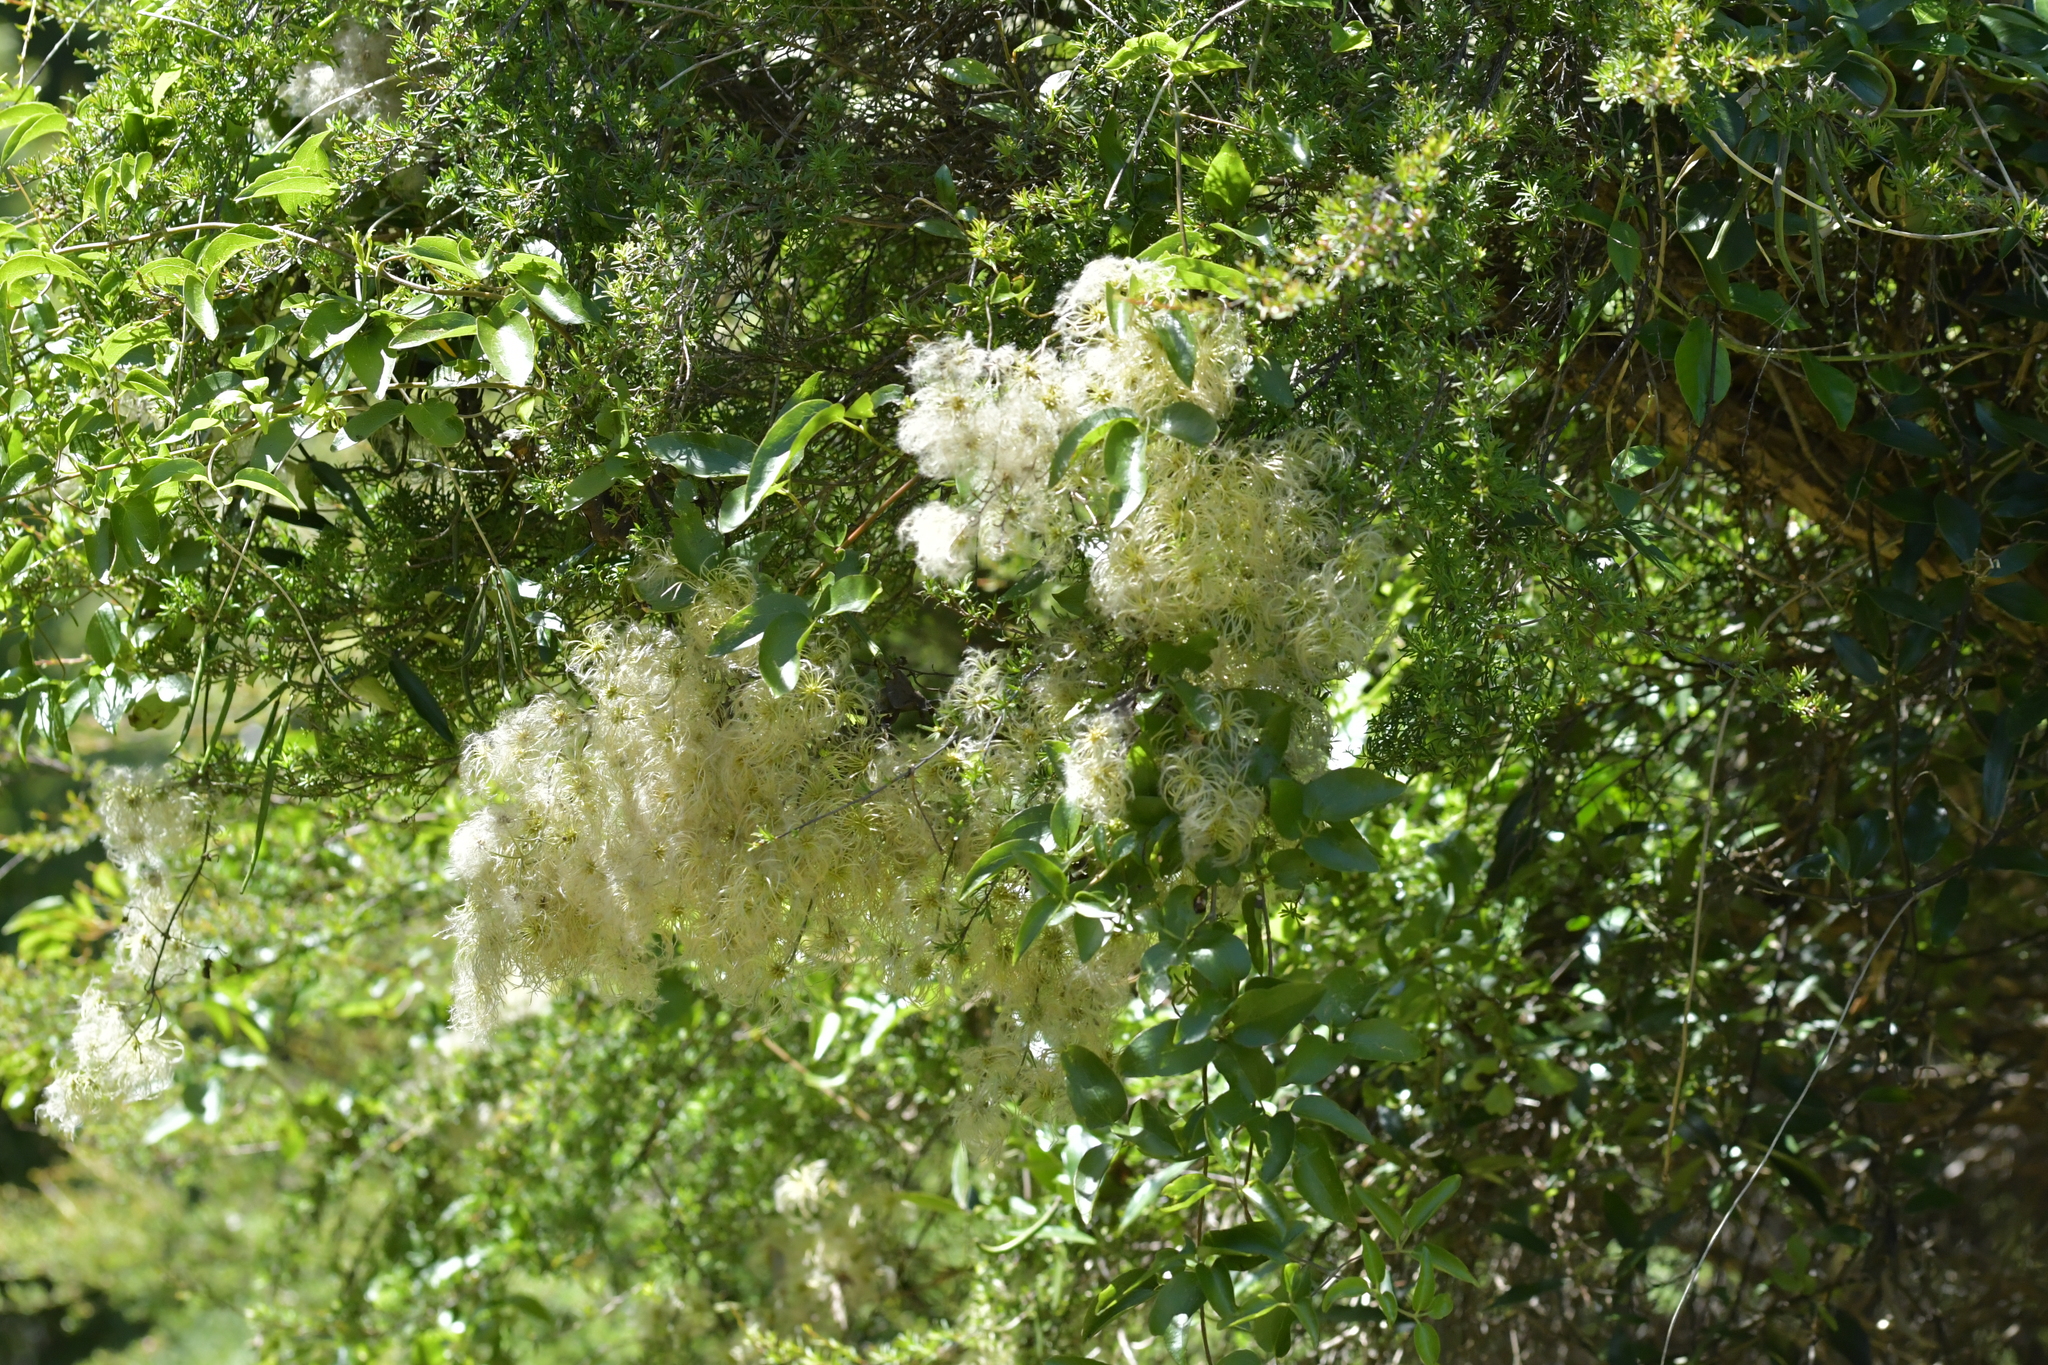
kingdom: Plantae
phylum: Tracheophyta
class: Magnoliopsida
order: Ranunculales
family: Ranunculaceae
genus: Clematis
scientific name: Clematis forsteri
